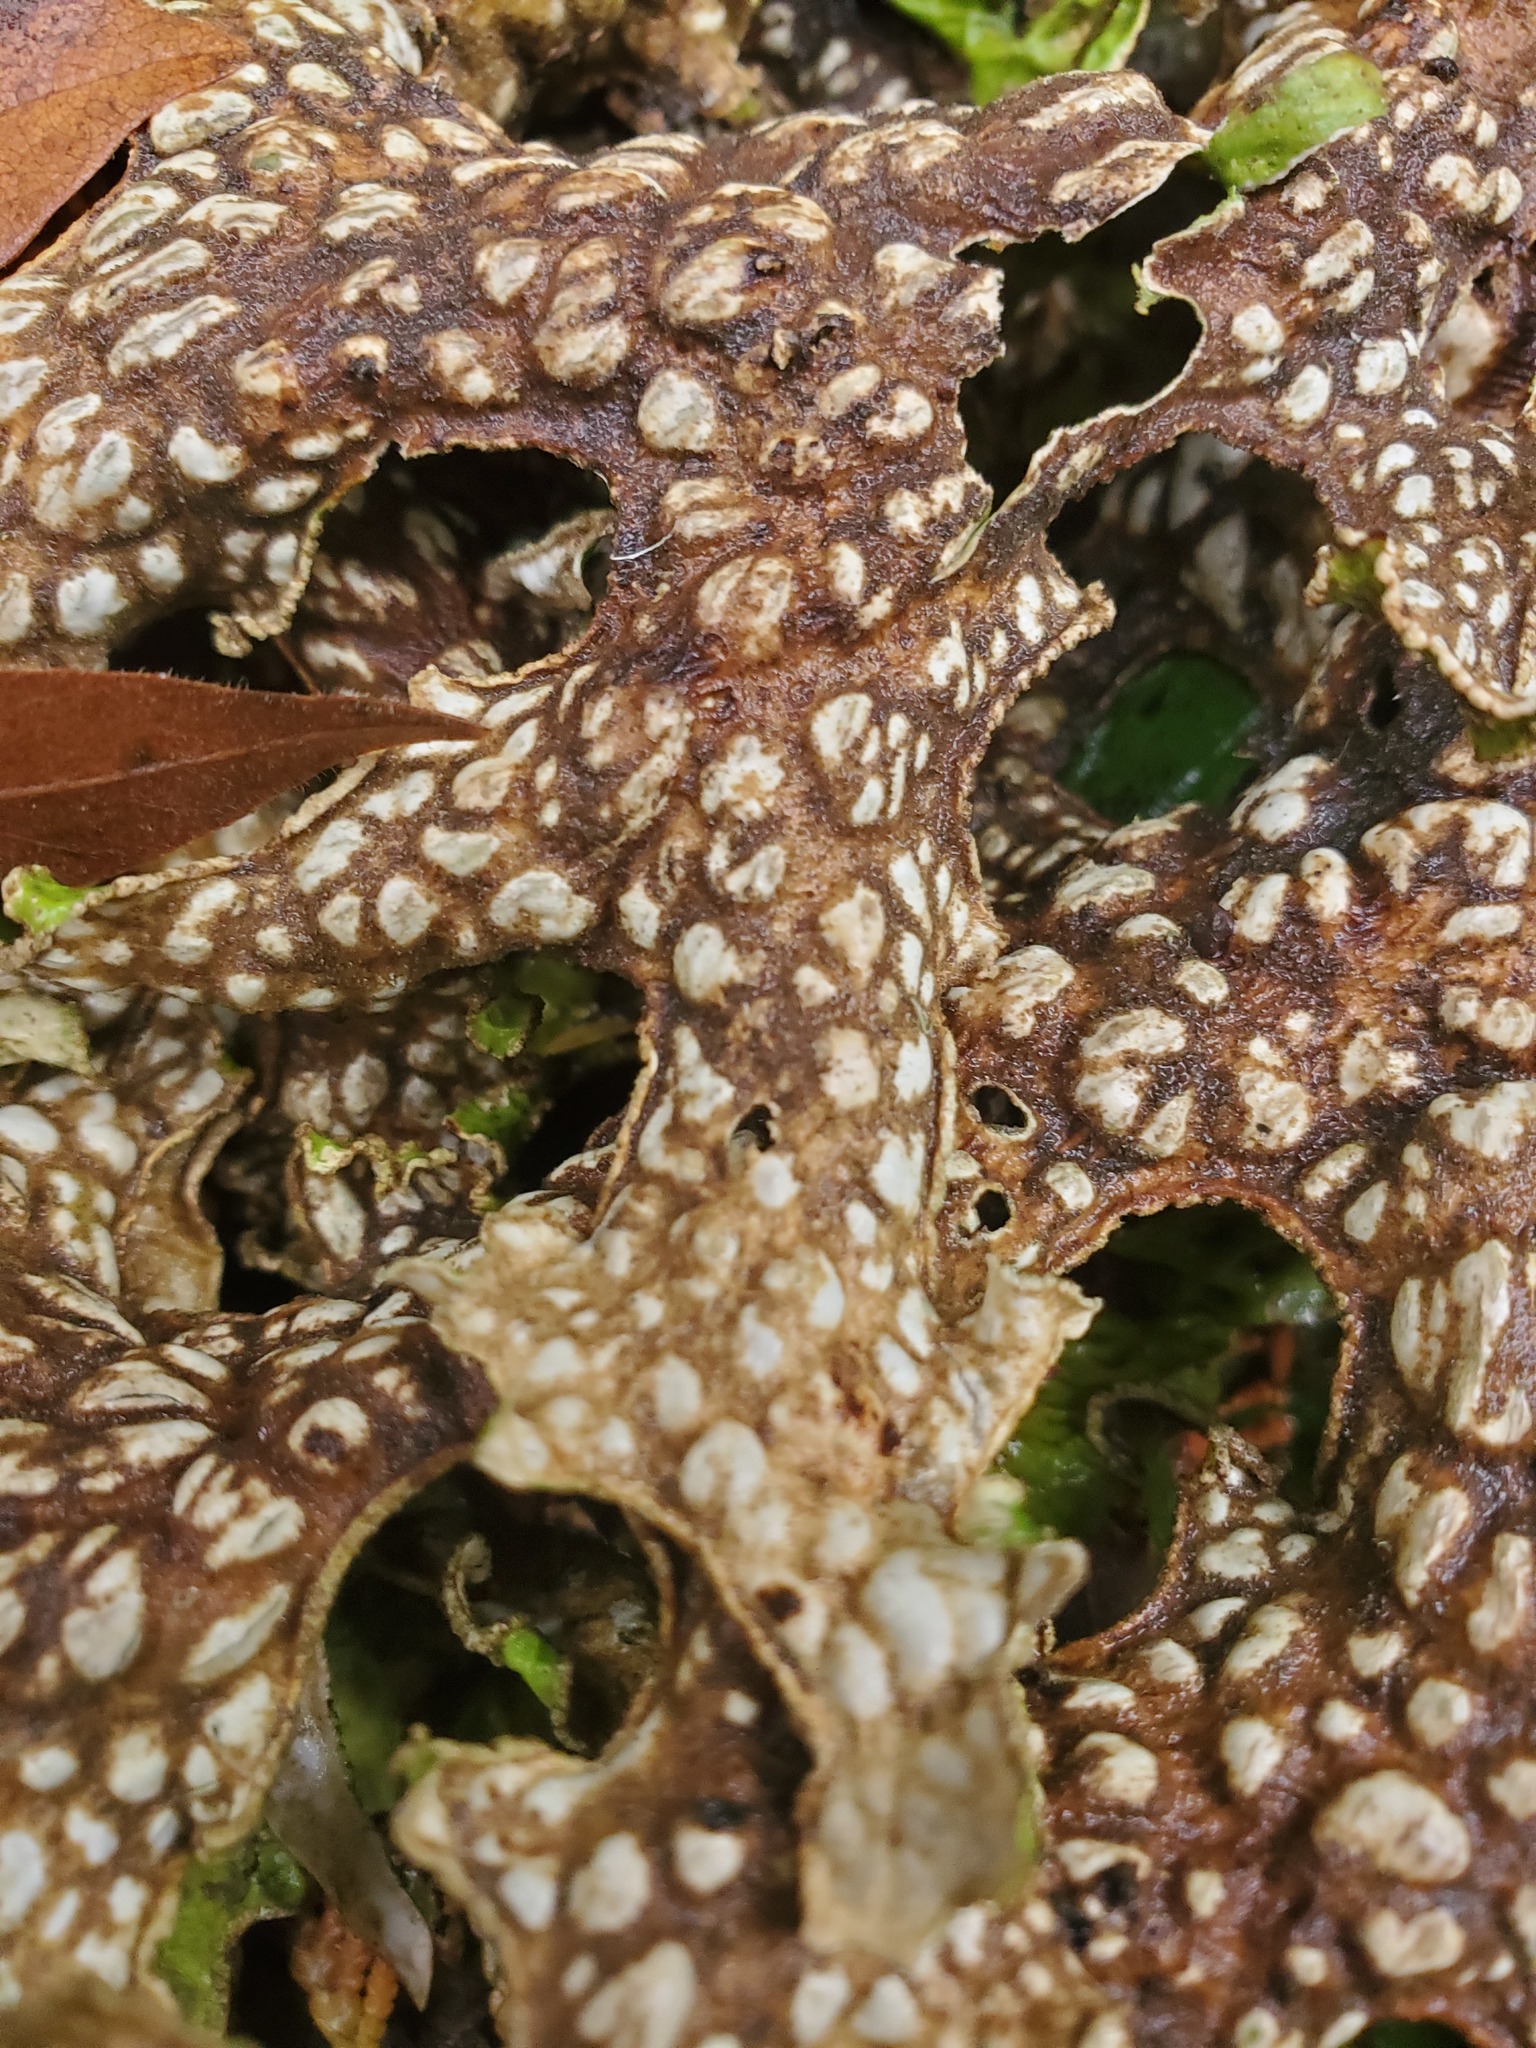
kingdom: Fungi
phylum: Ascomycota
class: Lecanoromycetes
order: Peltigerales
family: Lobariaceae
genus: Lobaria
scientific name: Lobaria pulmonaria
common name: Lungwort
